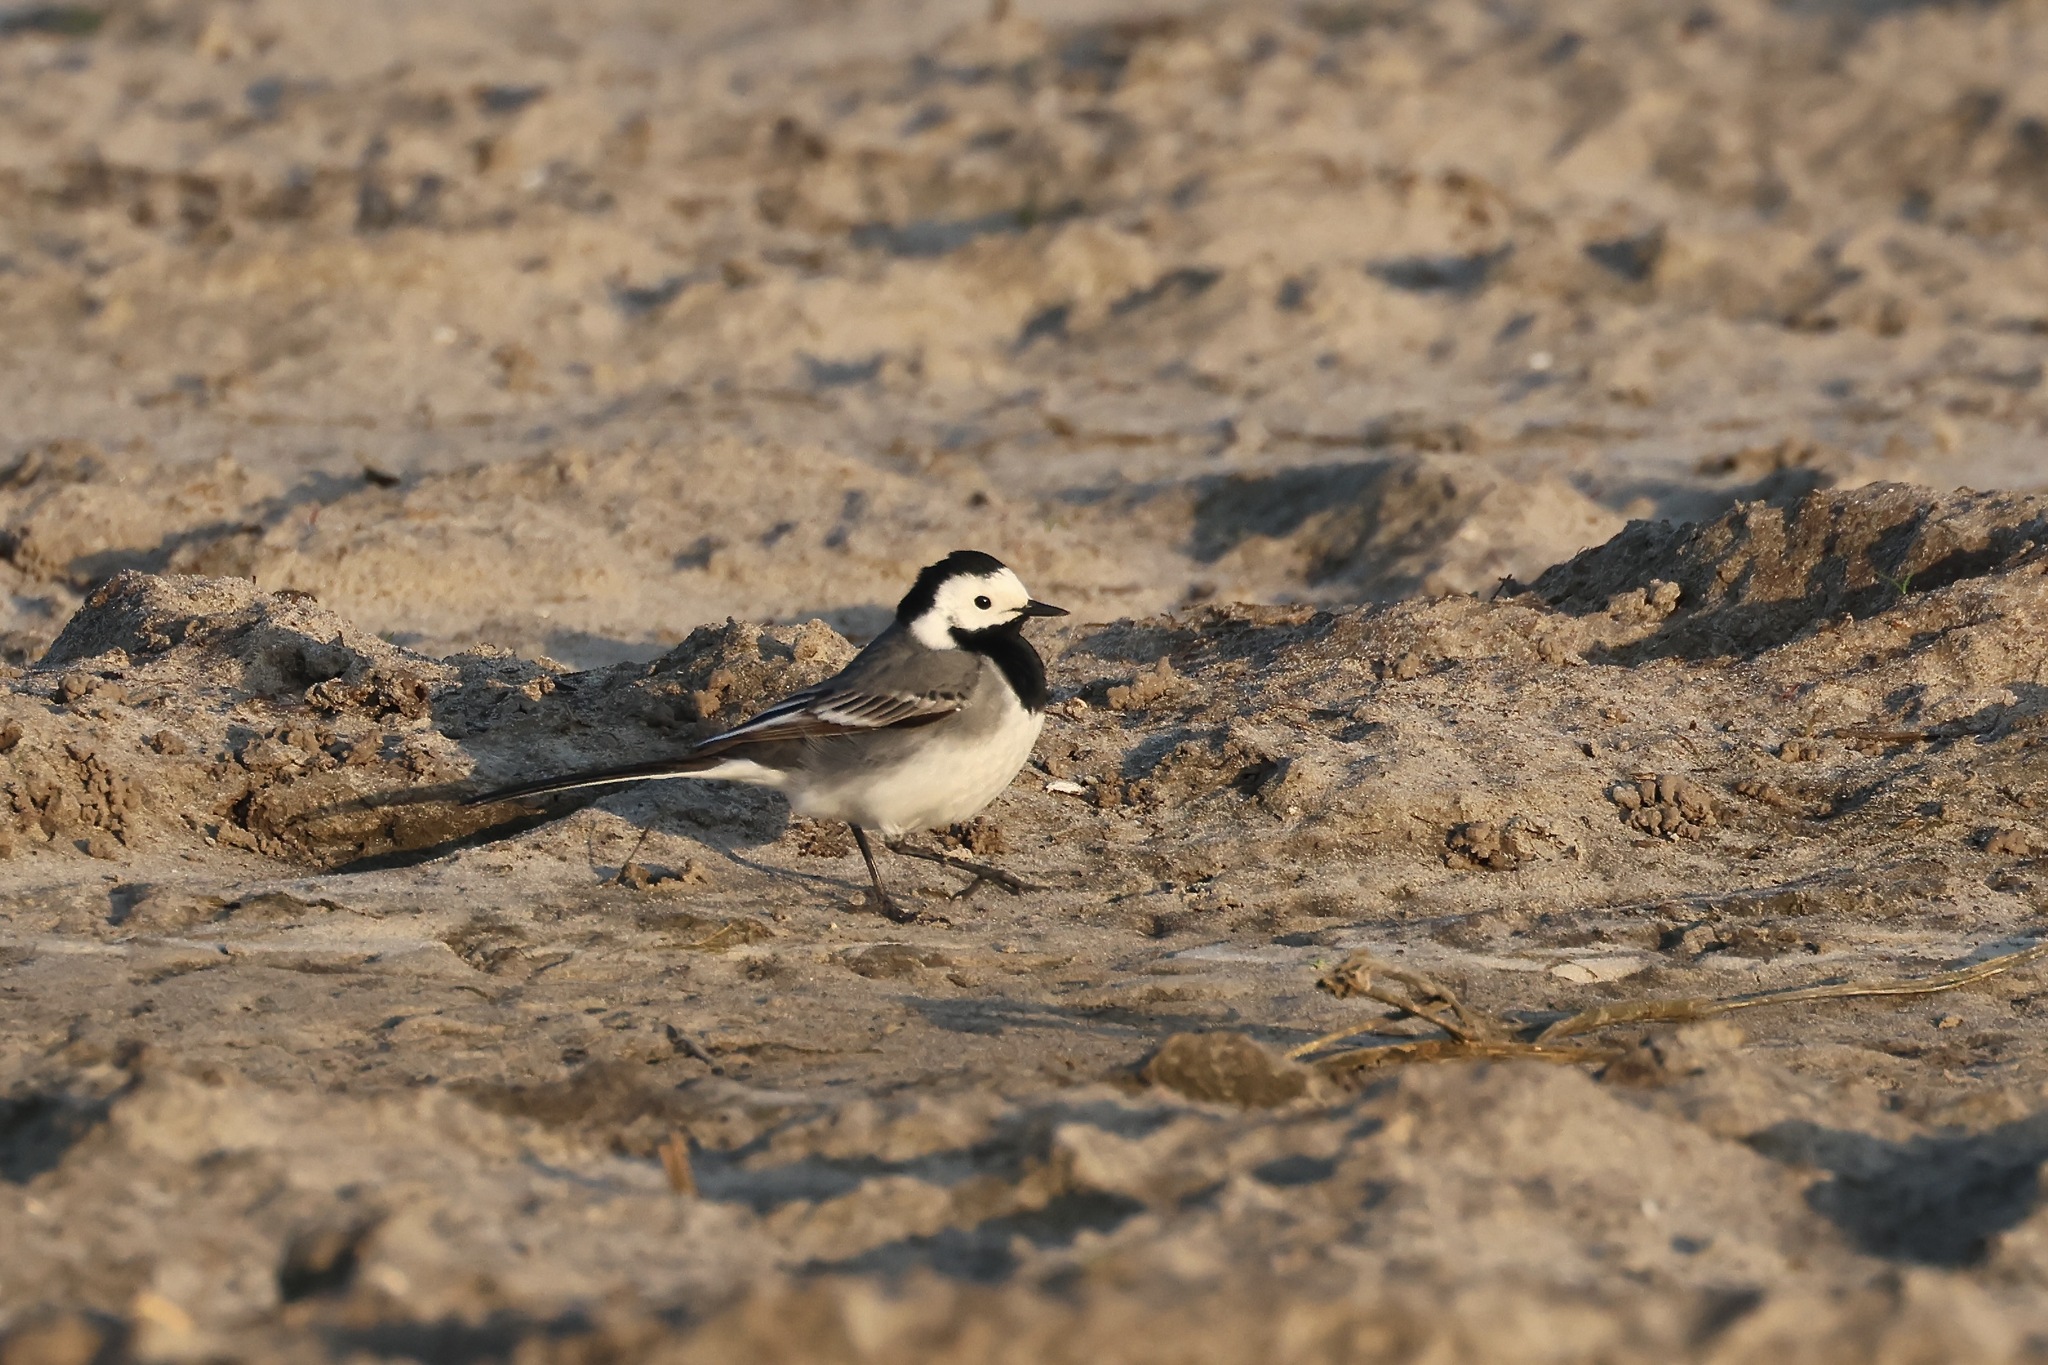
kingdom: Animalia
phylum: Chordata
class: Aves
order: Passeriformes
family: Motacillidae
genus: Motacilla
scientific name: Motacilla alba
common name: White wagtail
